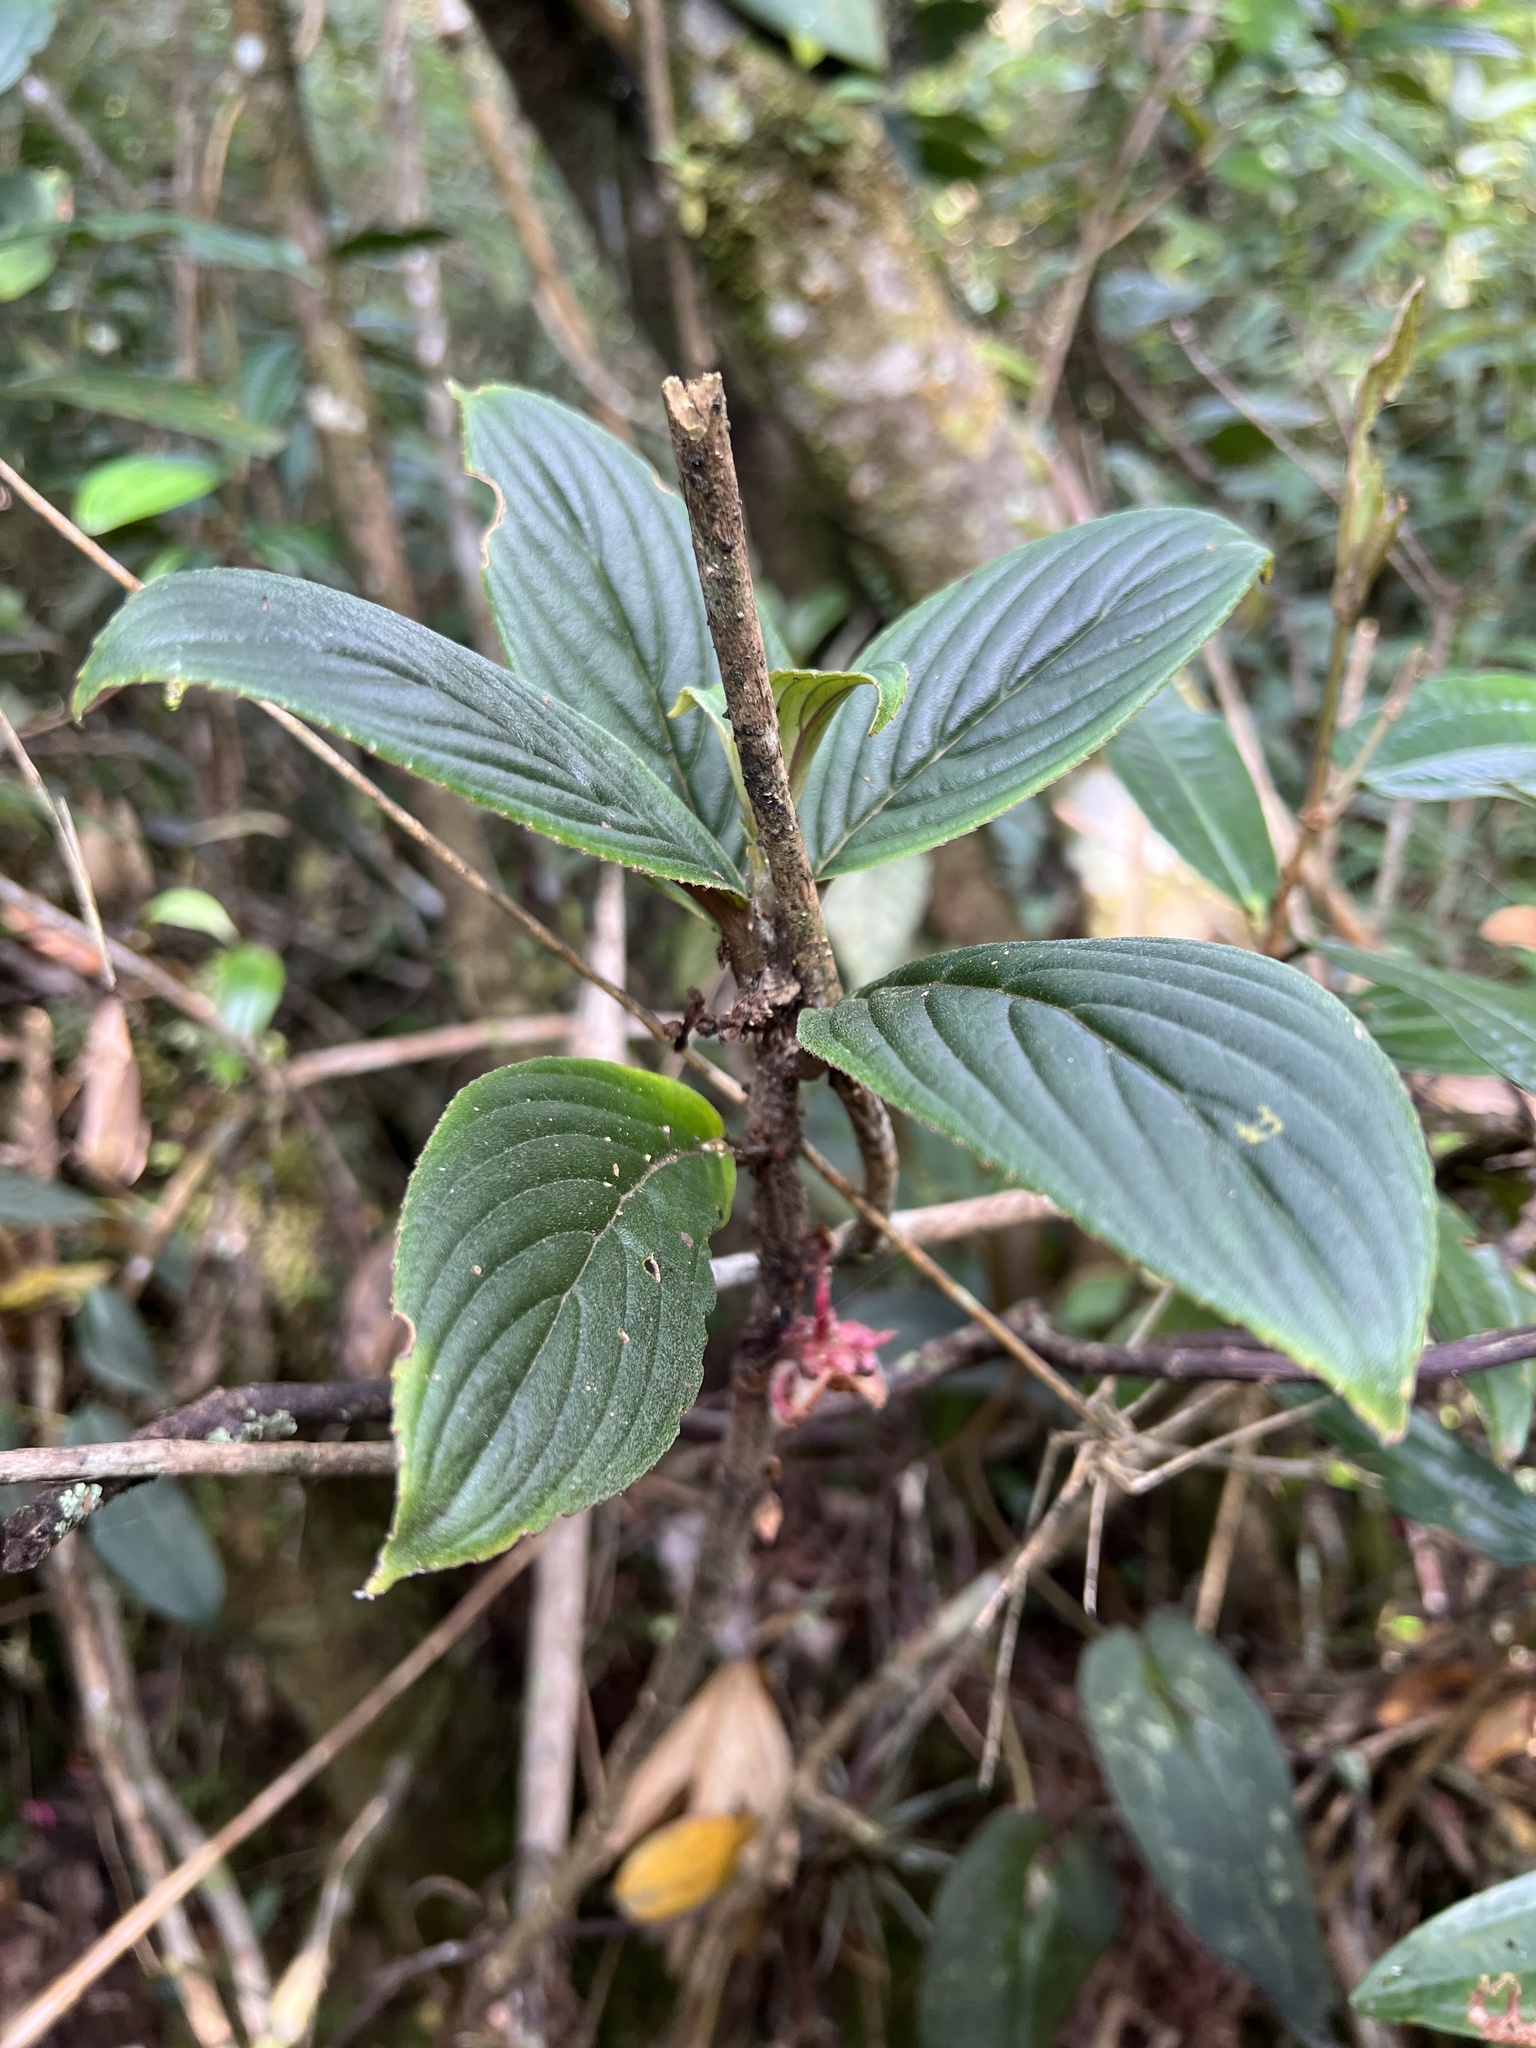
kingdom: Plantae
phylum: Tracheophyta
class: Magnoliopsida
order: Lamiales
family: Gesneriaceae
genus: Glossoloma
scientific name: Glossoloma ichthyoderma
